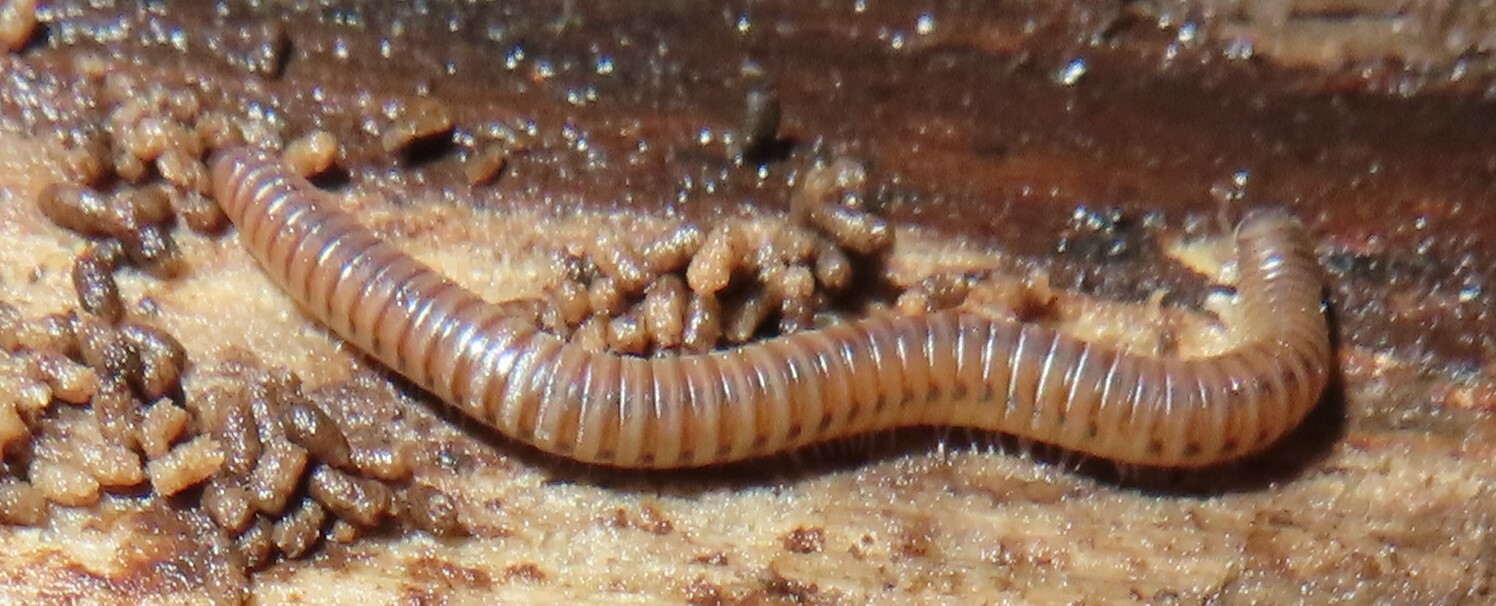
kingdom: Animalia
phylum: Arthropoda
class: Diplopoda
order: Julida
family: Julidae
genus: Cylindroiulus
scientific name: Cylindroiulus punctatus
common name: Blunt-tailed millipede
